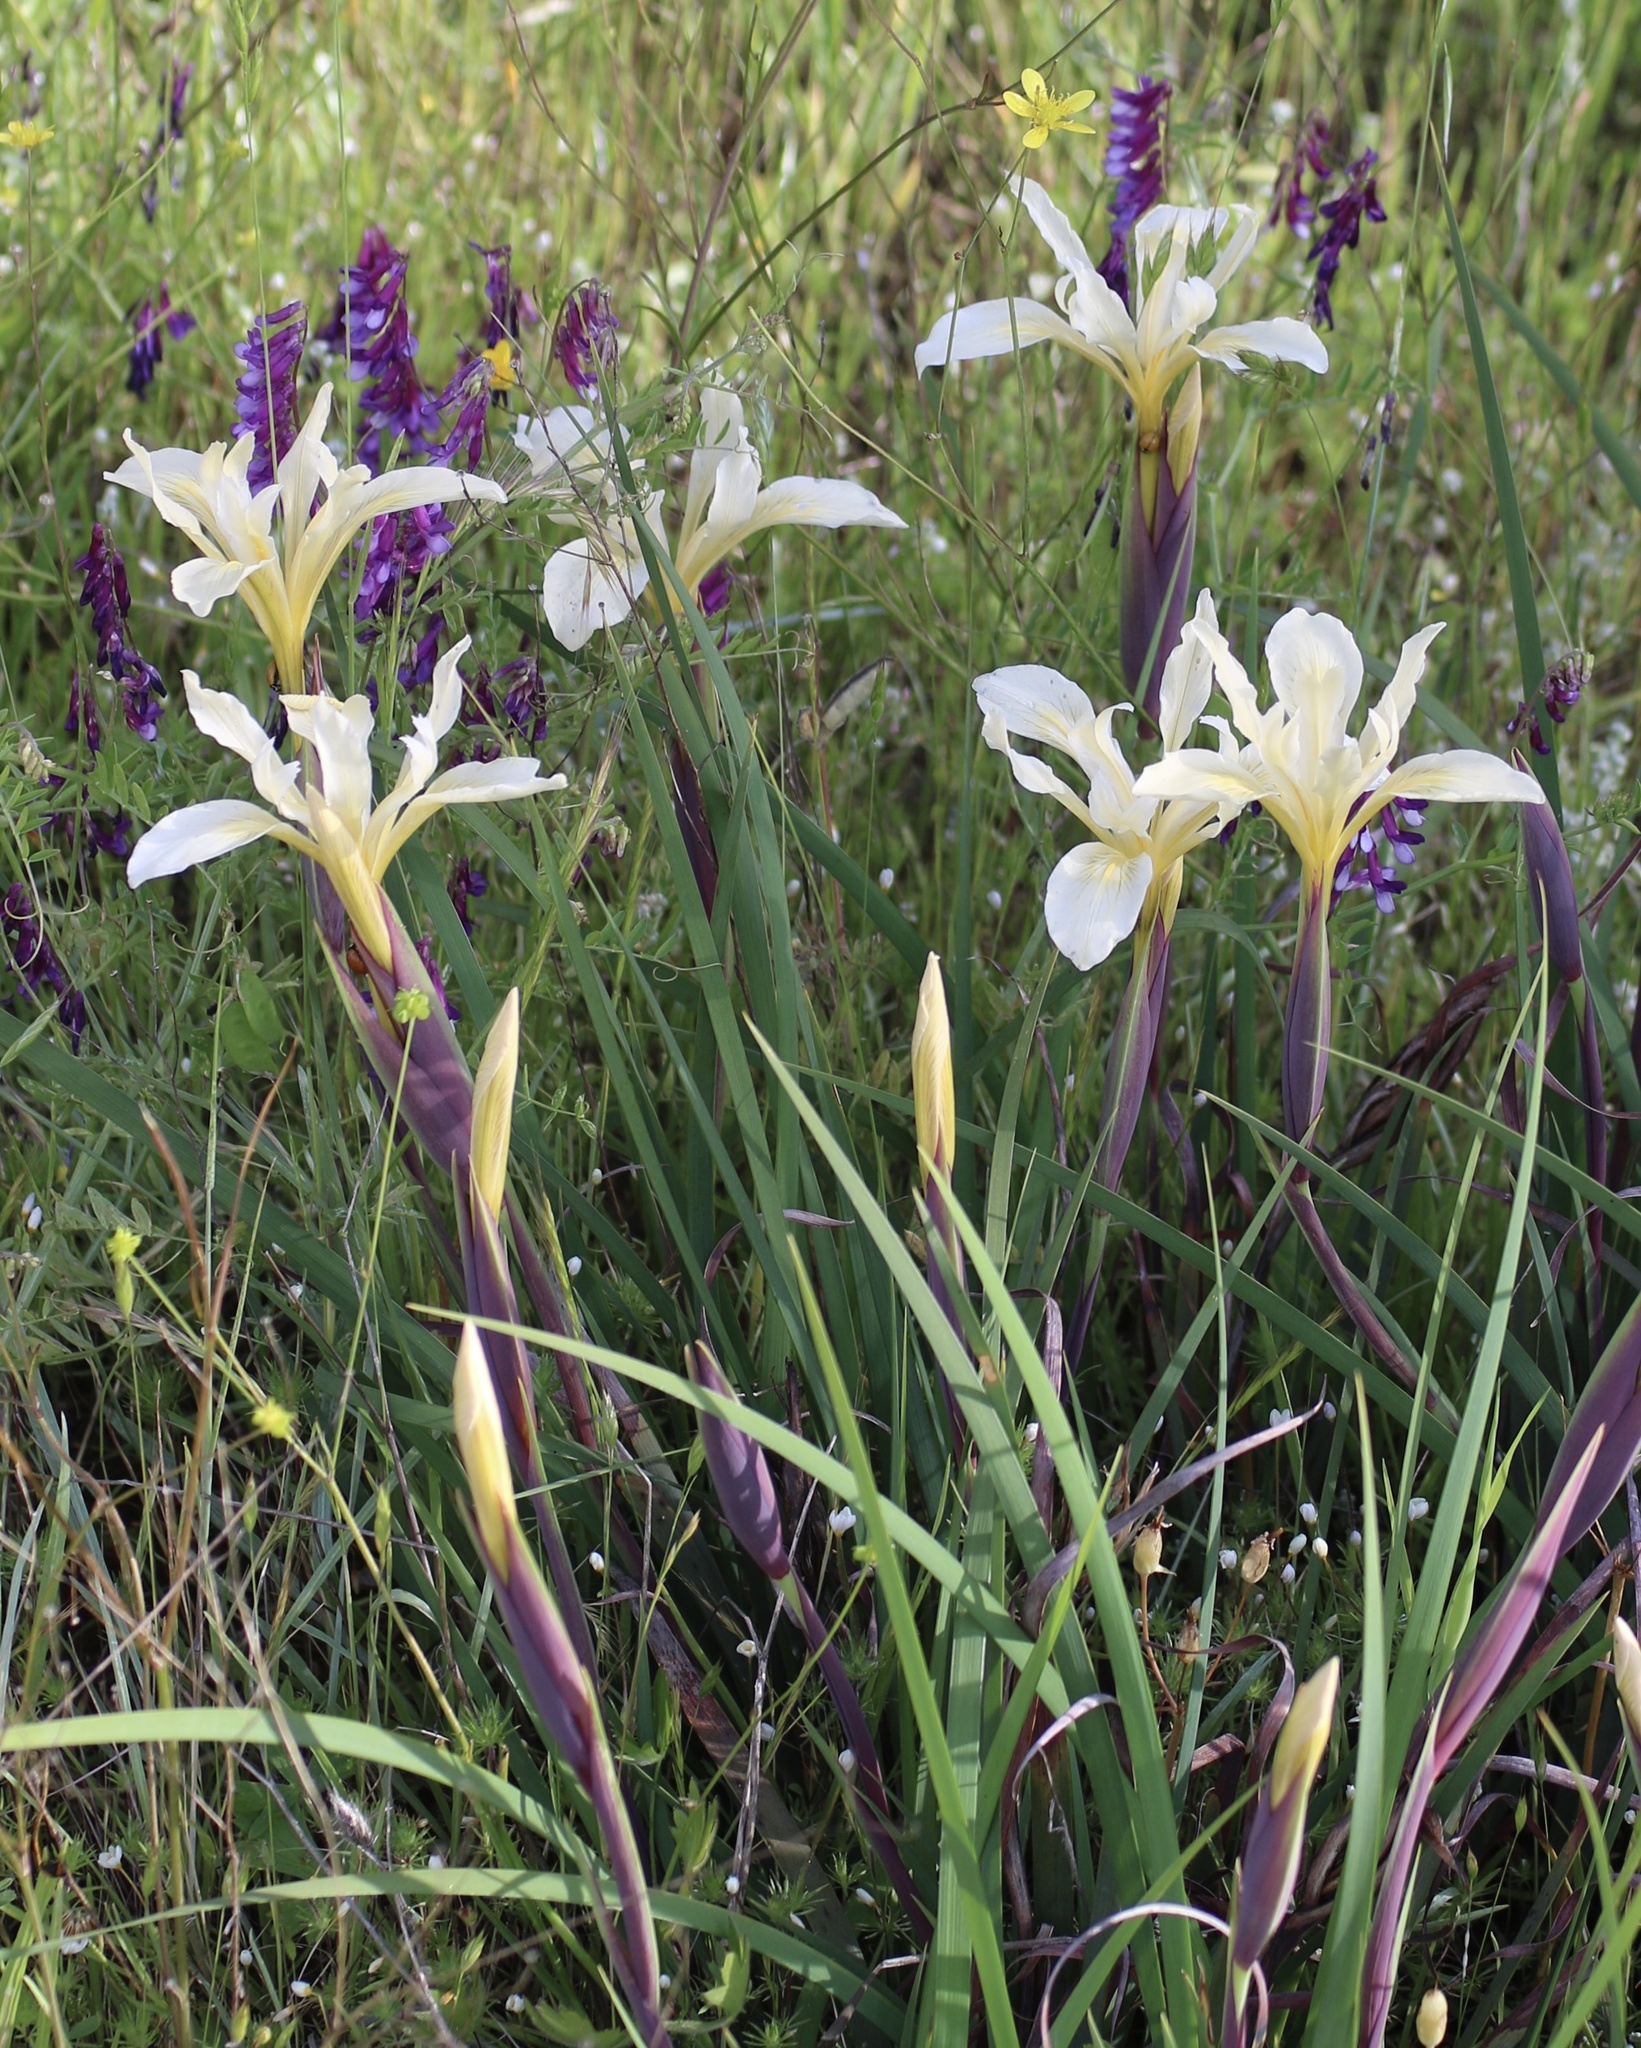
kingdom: Plantae
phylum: Tracheophyta
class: Liliopsida
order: Asparagales
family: Iridaceae
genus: Iris
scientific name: Iris fernaldii
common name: Fernald's iris
